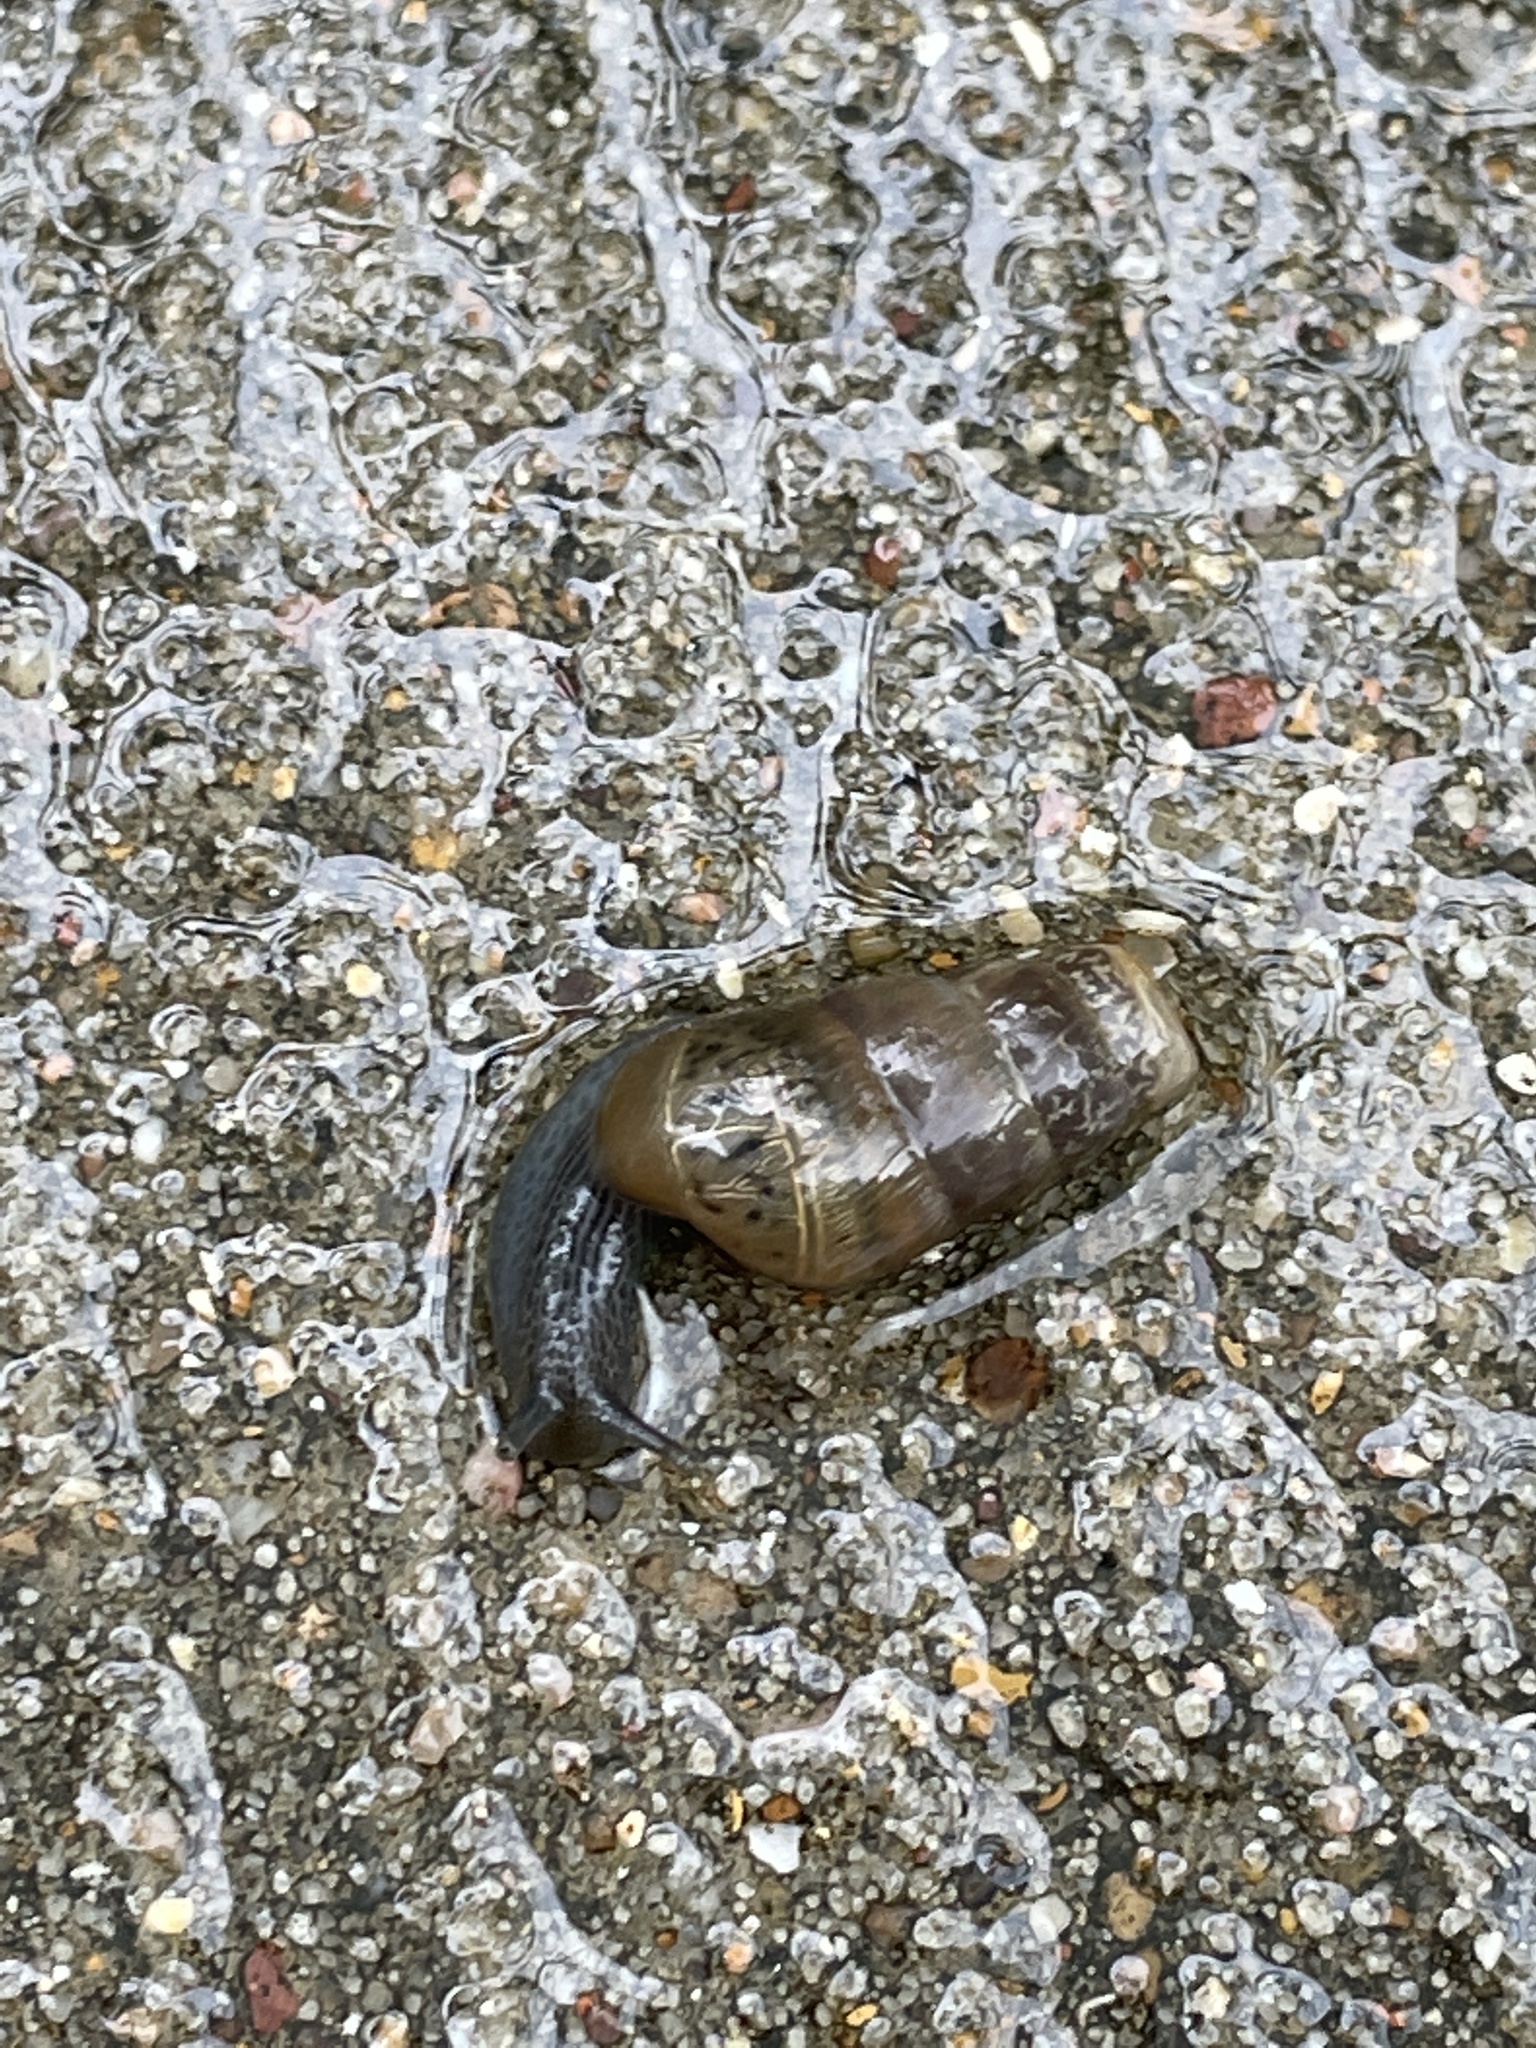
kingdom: Animalia
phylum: Mollusca
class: Gastropoda
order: Stylommatophora
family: Achatinidae
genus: Rumina
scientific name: Rumina decollata
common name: Decollate snail
